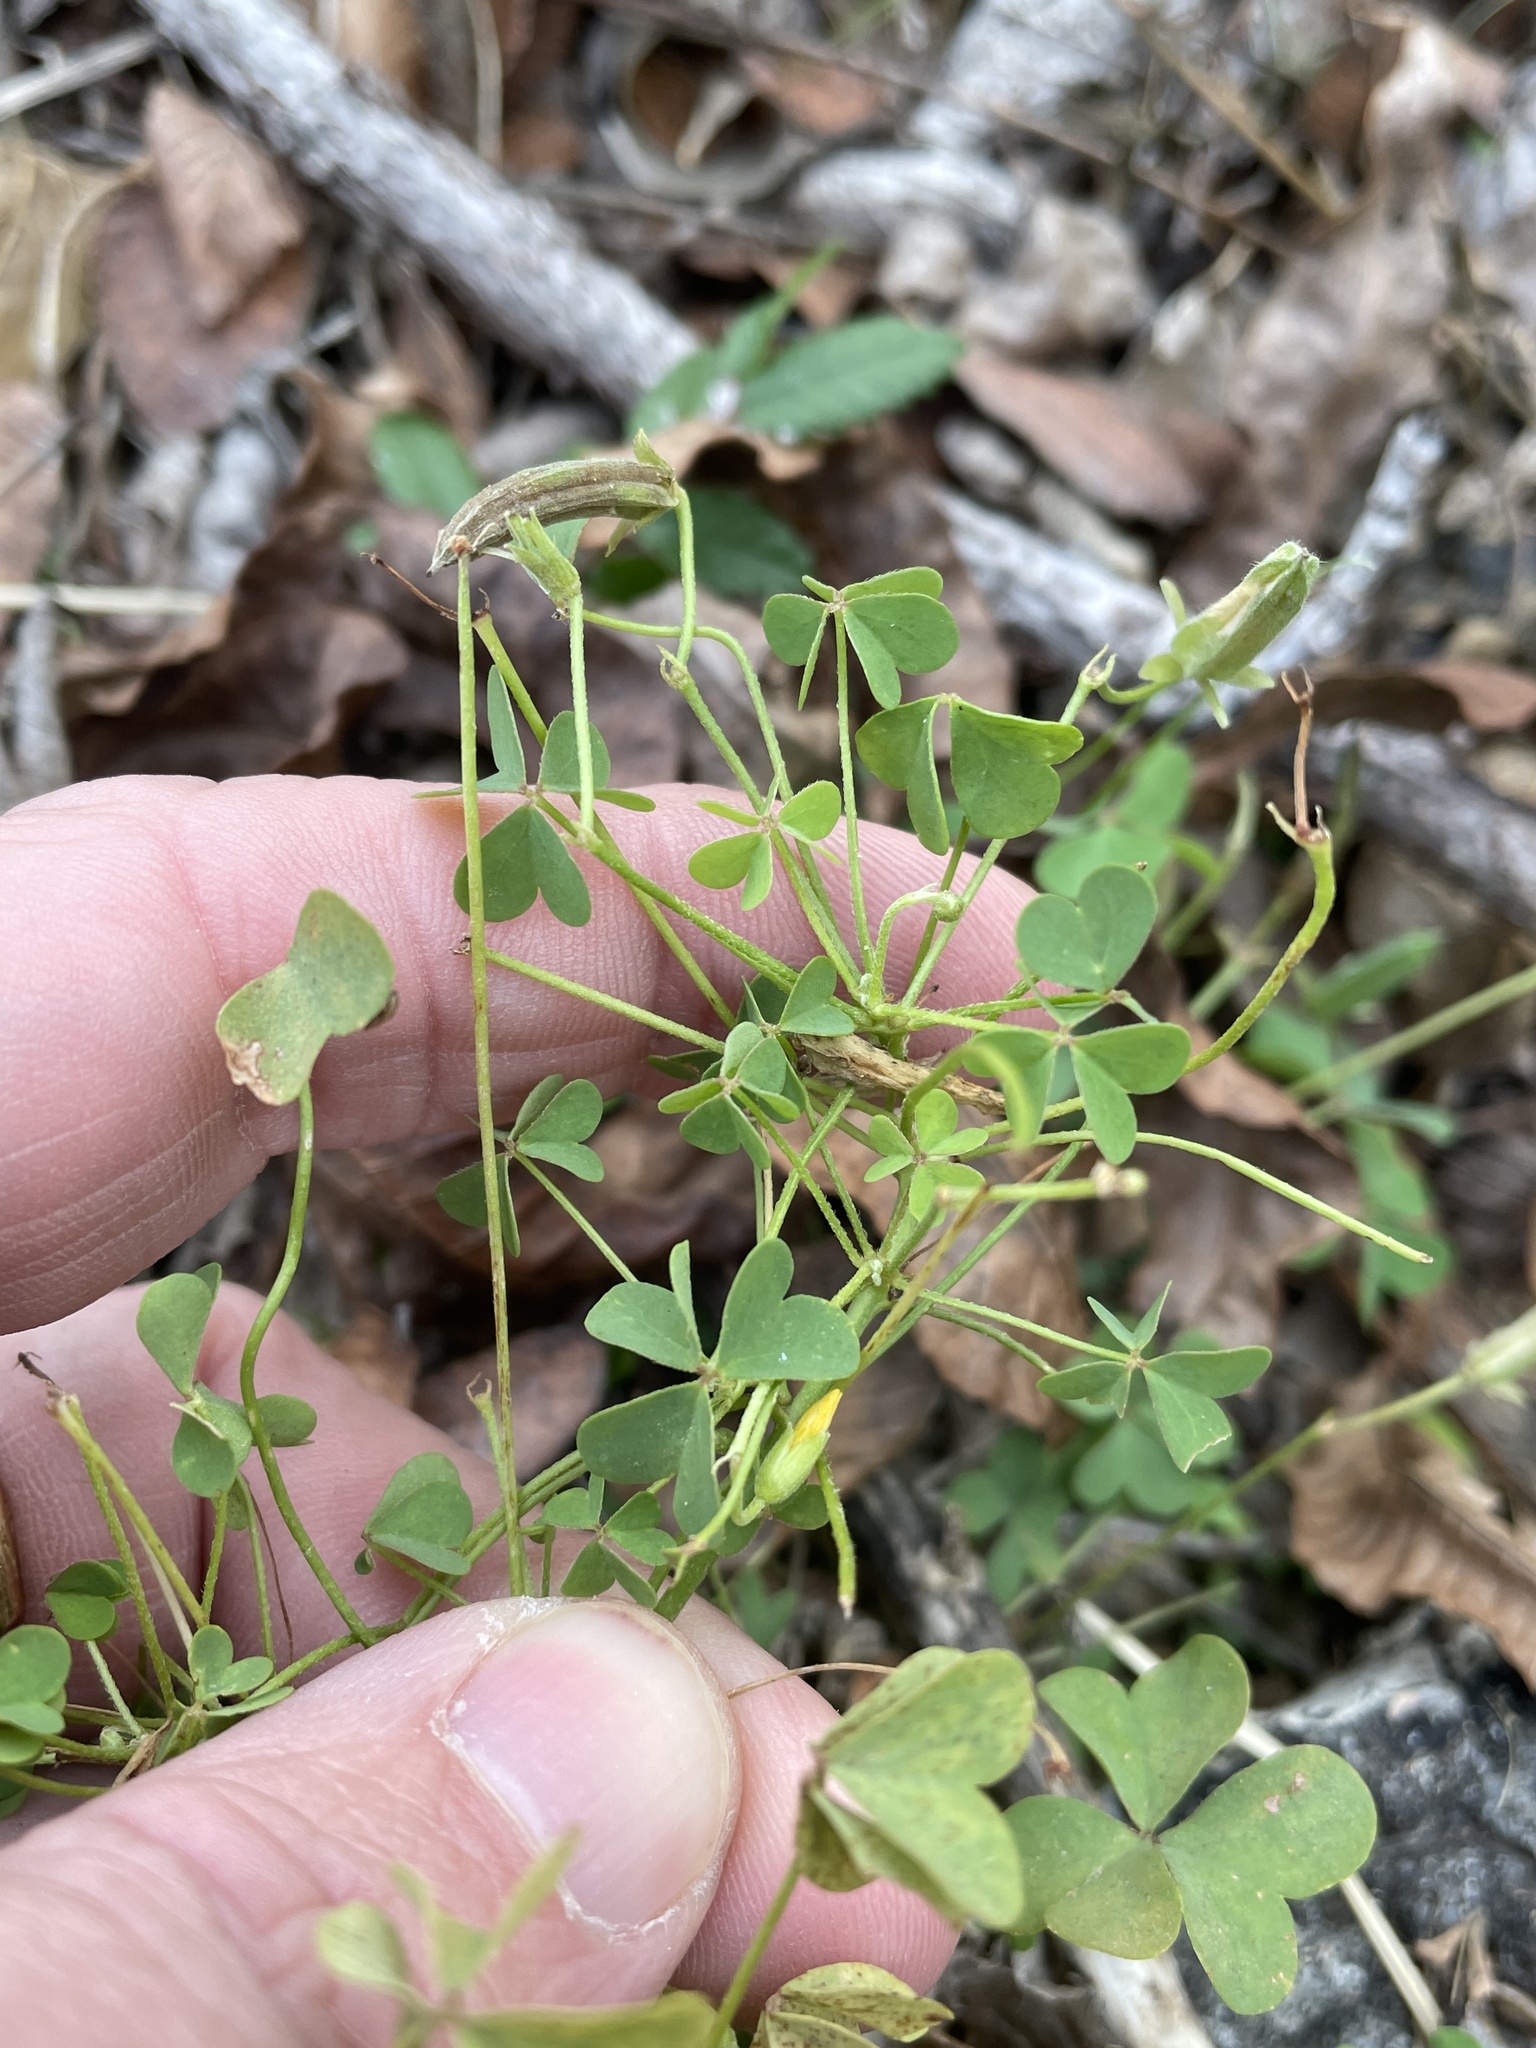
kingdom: Plantae
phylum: Tracheophyta
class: Magnoliopsida
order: Oxalidales
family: Oxalidaceae
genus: Oxalis
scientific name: Oxalis dillenii
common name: Sussex yellow-sorrel
